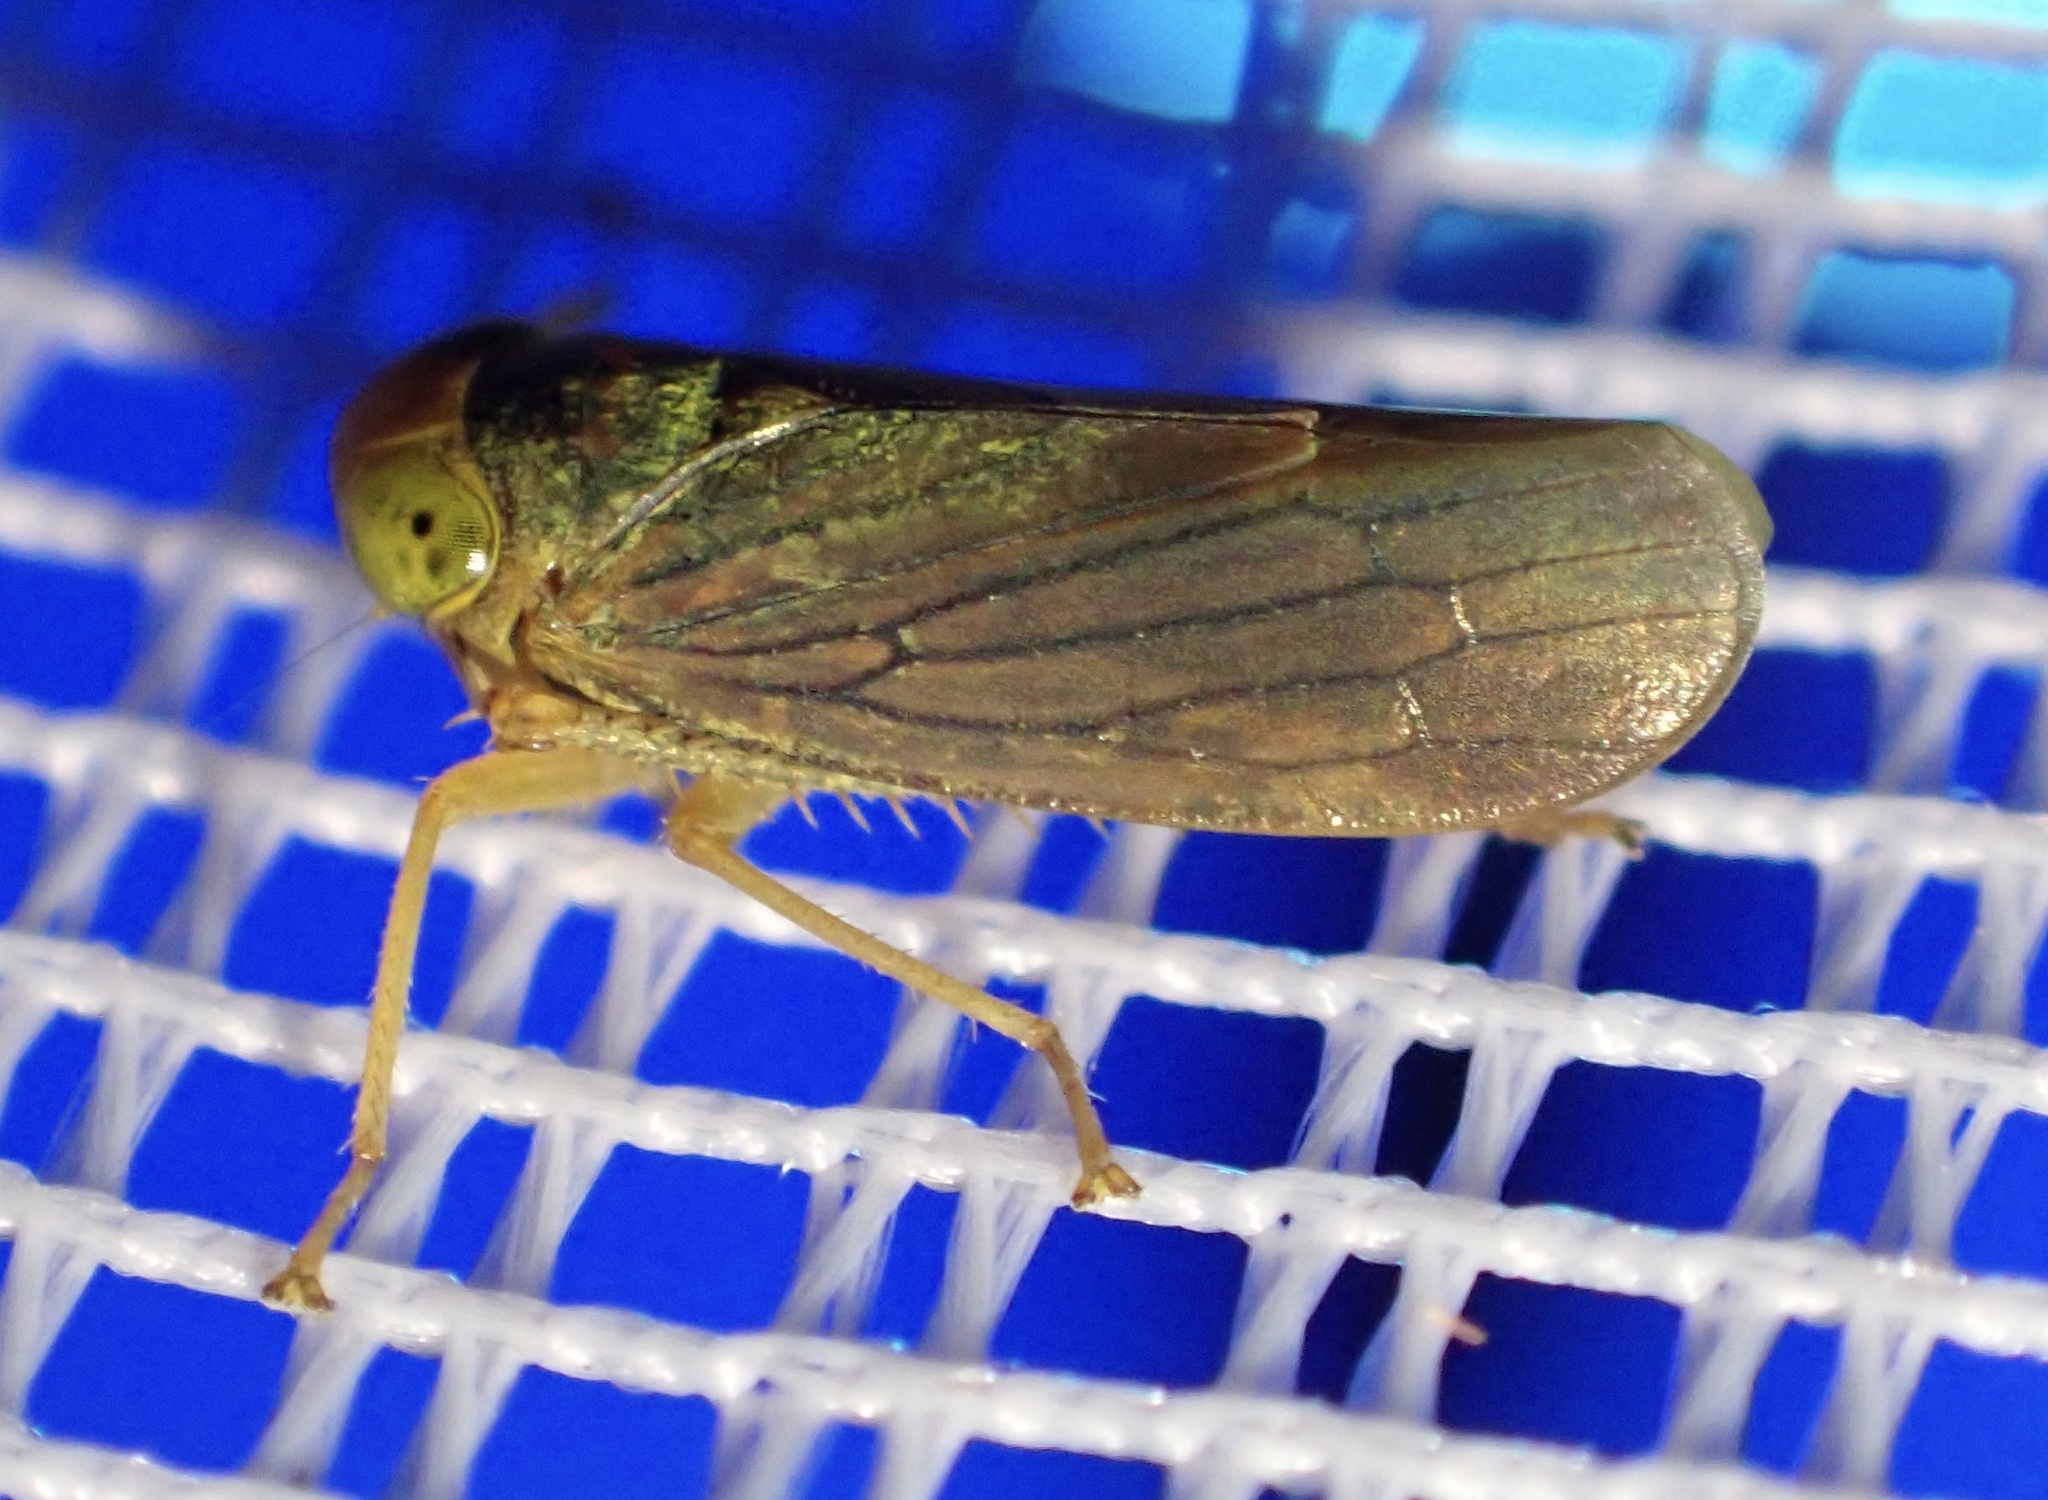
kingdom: Animalia
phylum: Arthropoda
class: Insecta
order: Hemiptera
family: Cicadellidae
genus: Jikradia
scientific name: Jikradia olitoria
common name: Coppery leafhopper
